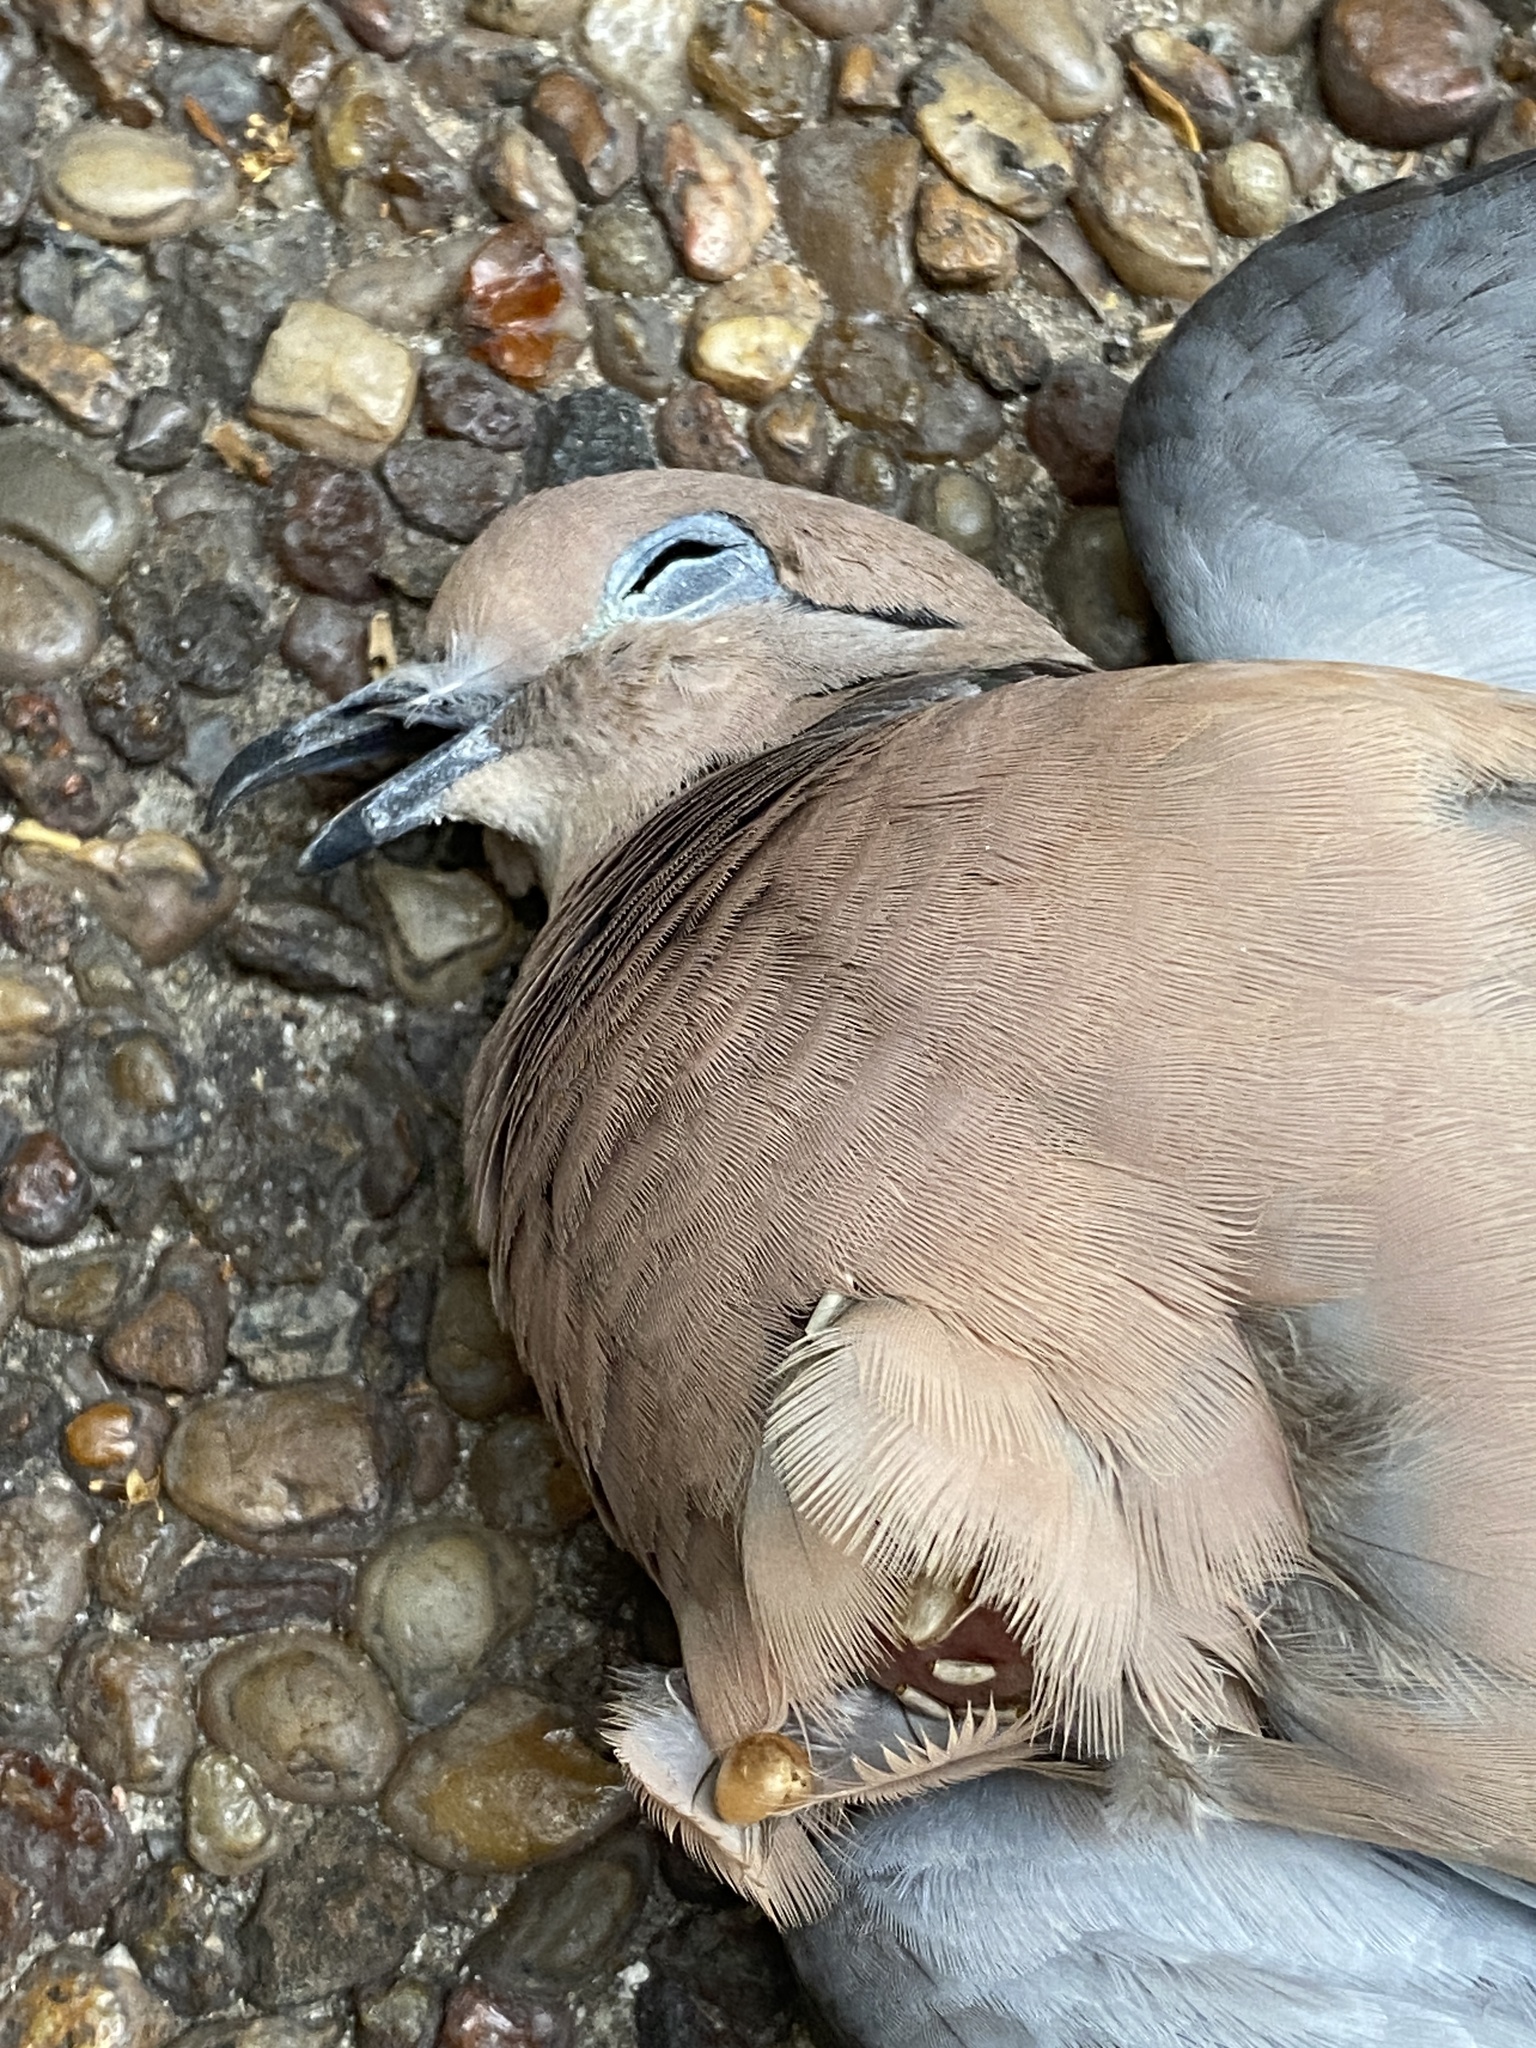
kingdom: Animalia
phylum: Chordata
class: Aves
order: Columbiformes
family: Columbidae
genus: Zenaida
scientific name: Zenaida auriculata
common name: Eared dove
